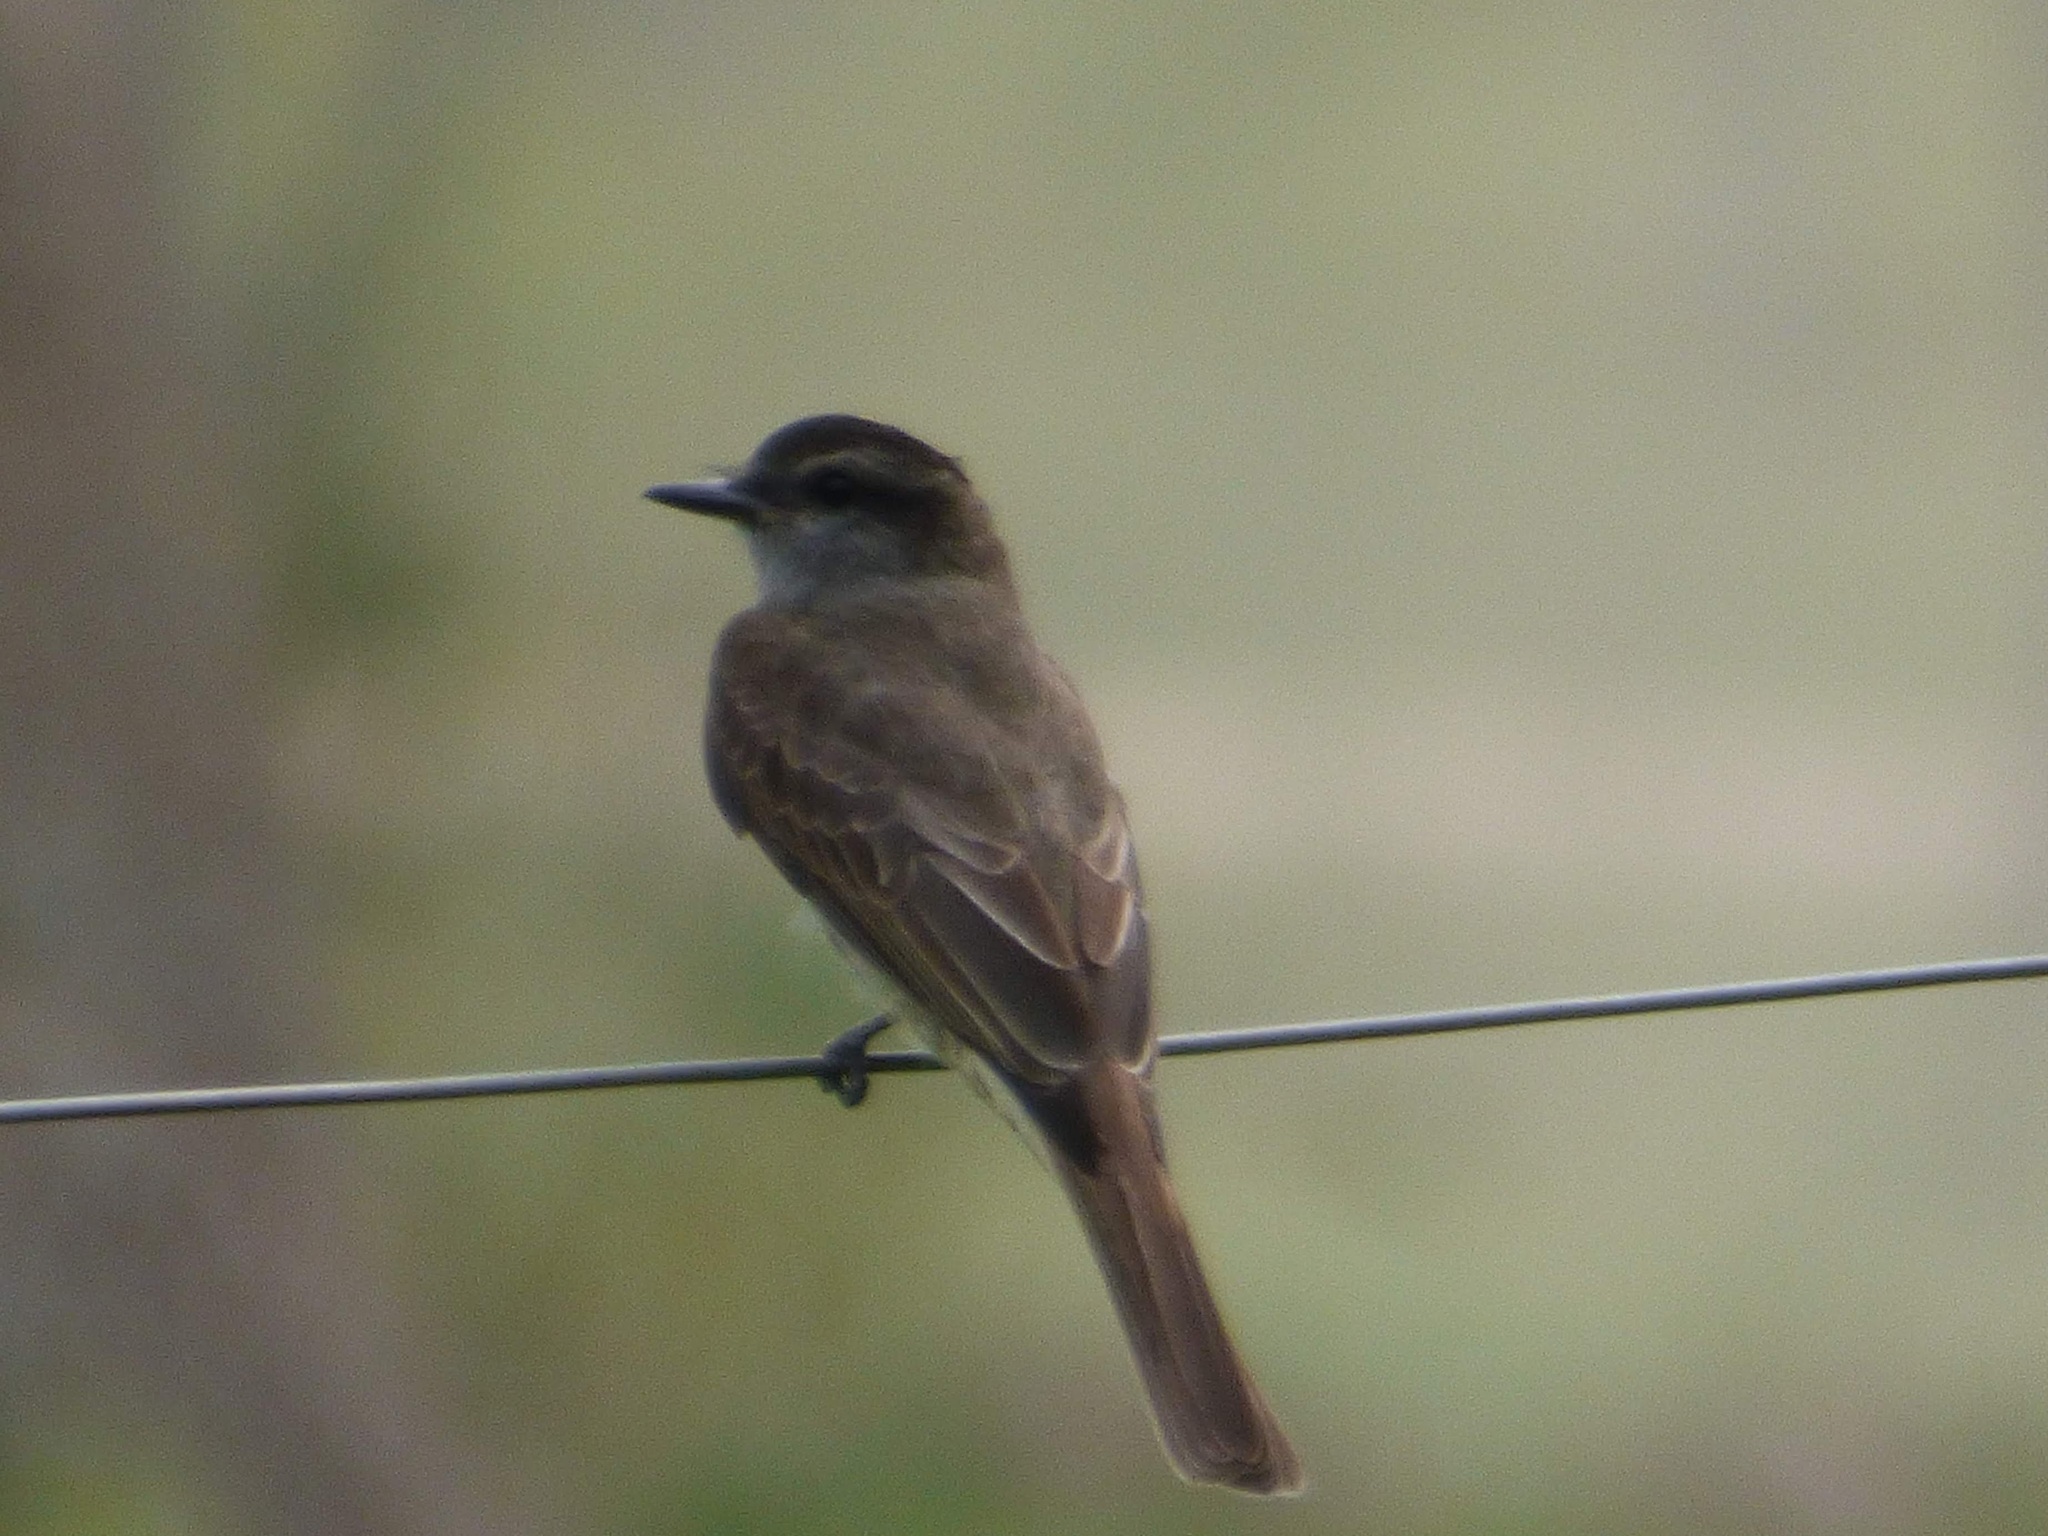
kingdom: Animalia
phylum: Chordata
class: Aves
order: Passeriformes
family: Tyrannidae
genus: Empidonomus
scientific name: Empidonomus aurantioatrocristatus
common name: Crowned slaty flycatcher
